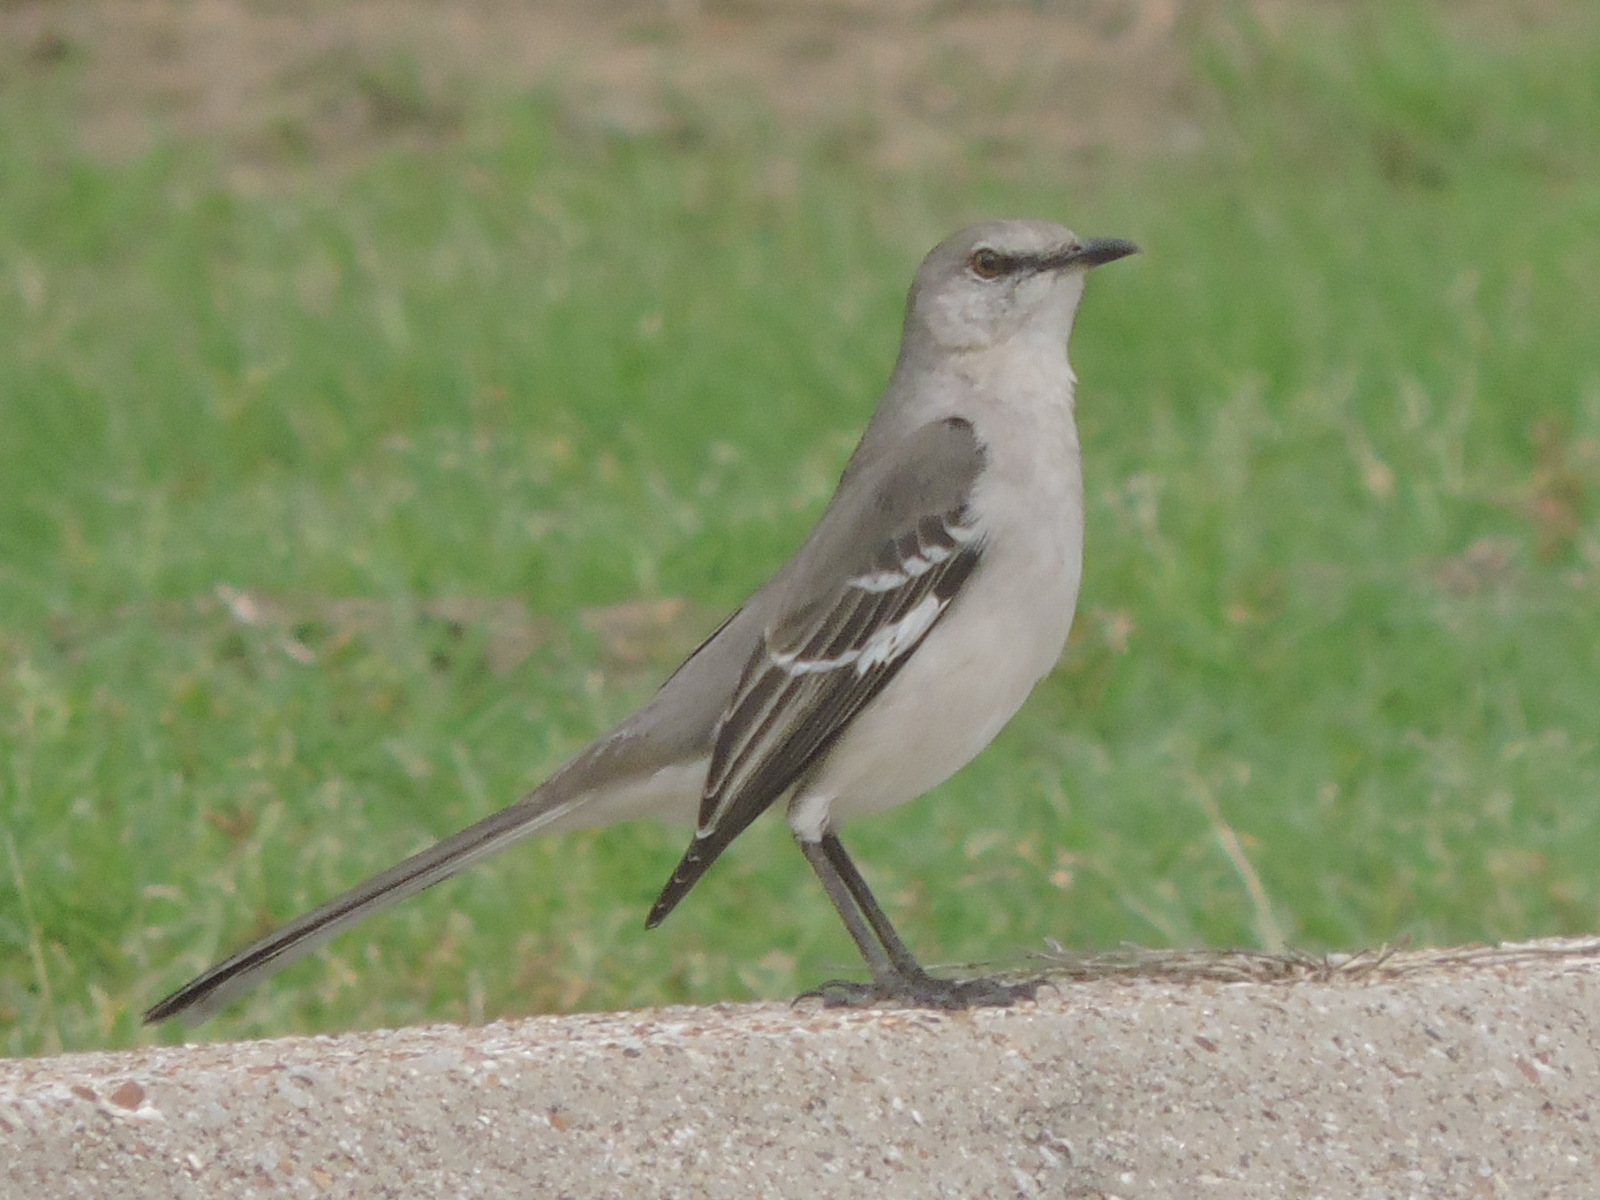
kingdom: Animalia
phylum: Chordata
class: Aves
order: Passeriformes
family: Mimidae
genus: Mimus
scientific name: Mimus polyglottos
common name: Northern mockingbird
